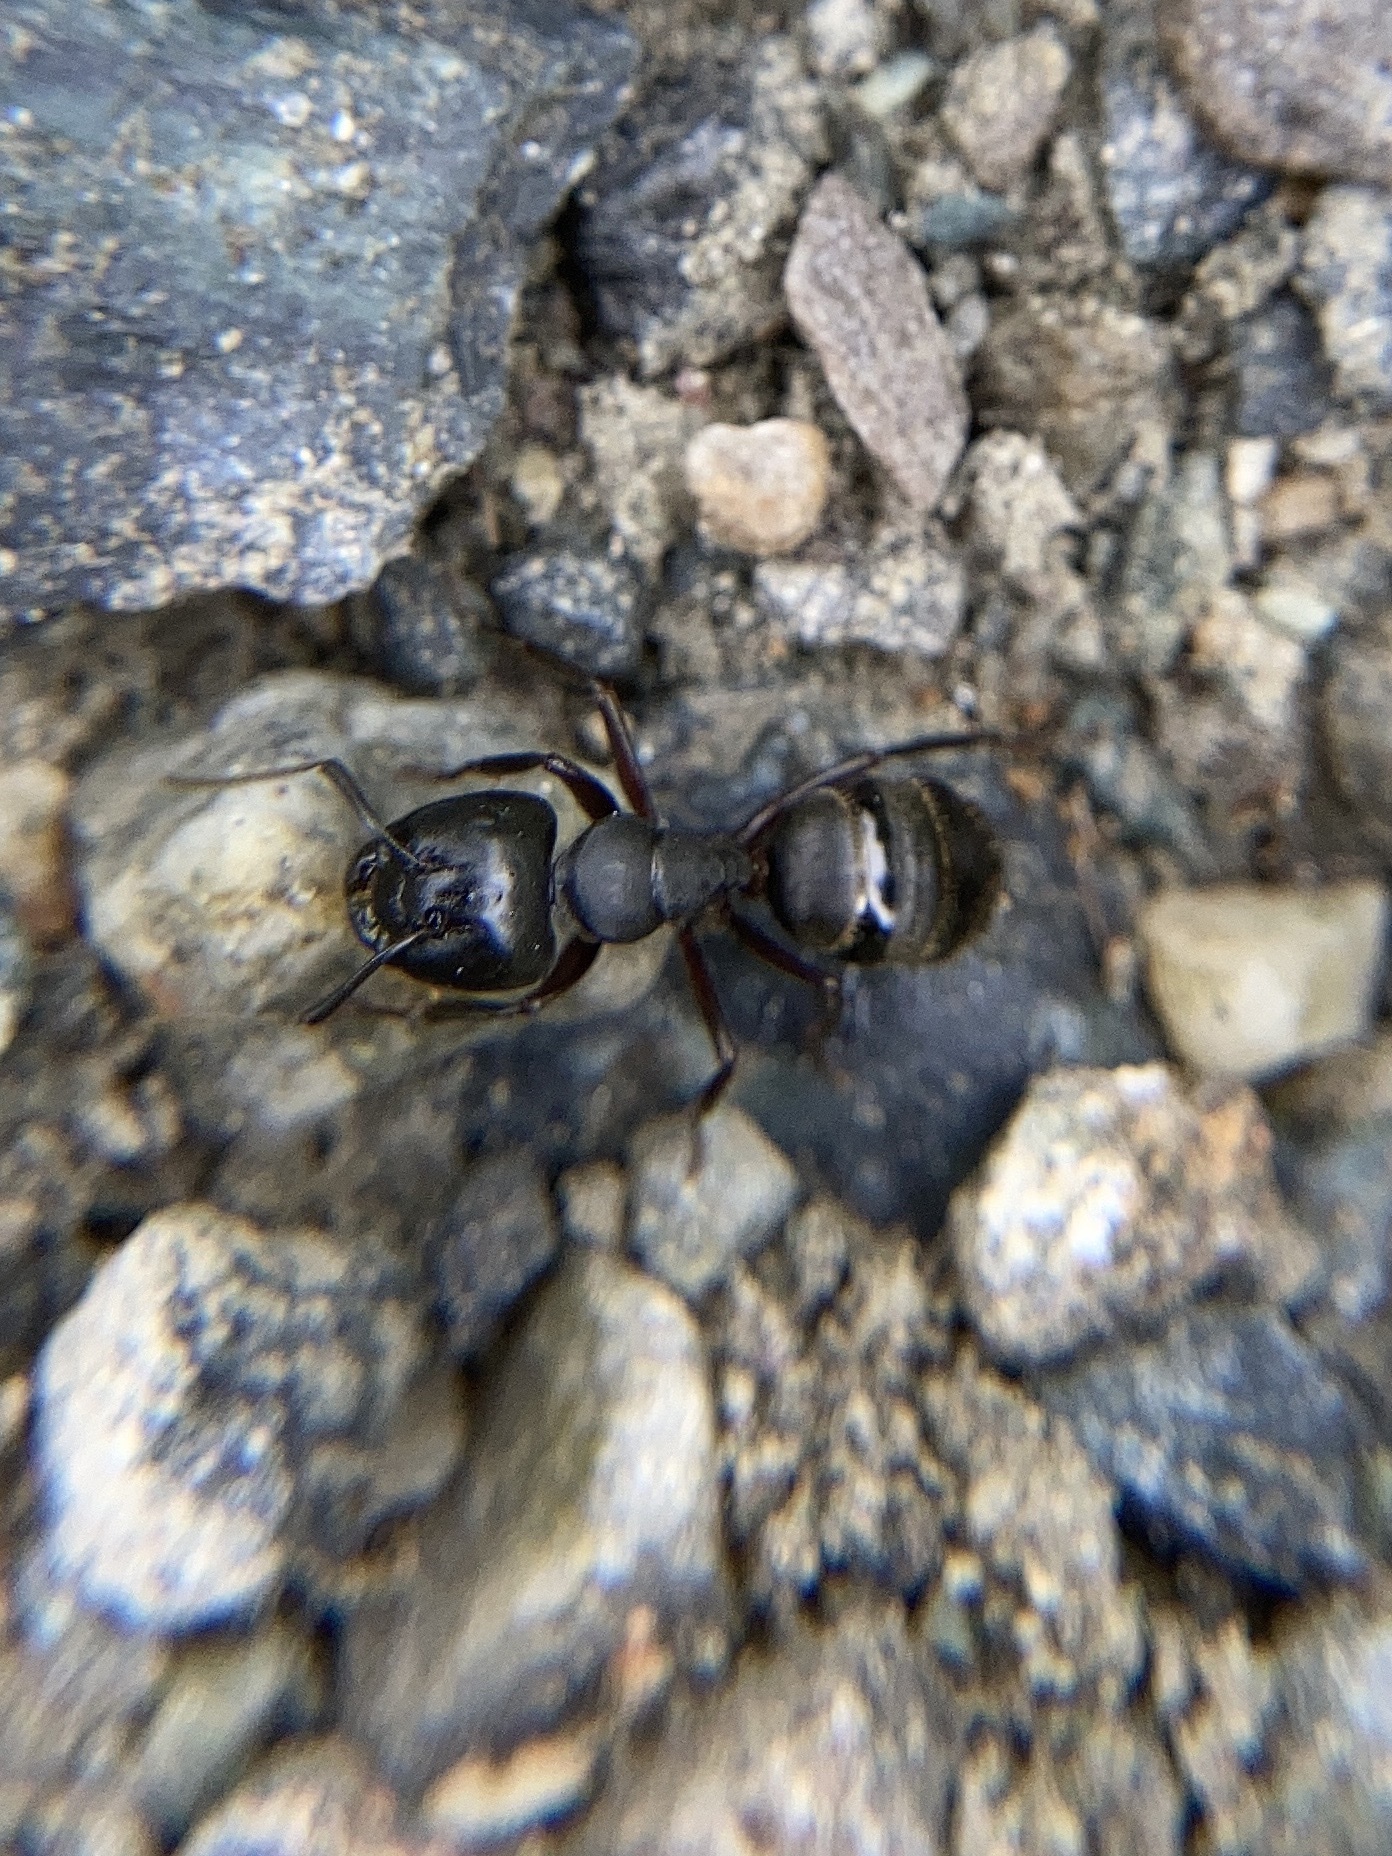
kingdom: Animalia
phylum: Arthropoda
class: Insecta
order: Hymenoptera
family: Formicidae
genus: Camponotus
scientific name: Camponotus herculeanus
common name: Hercules ant
